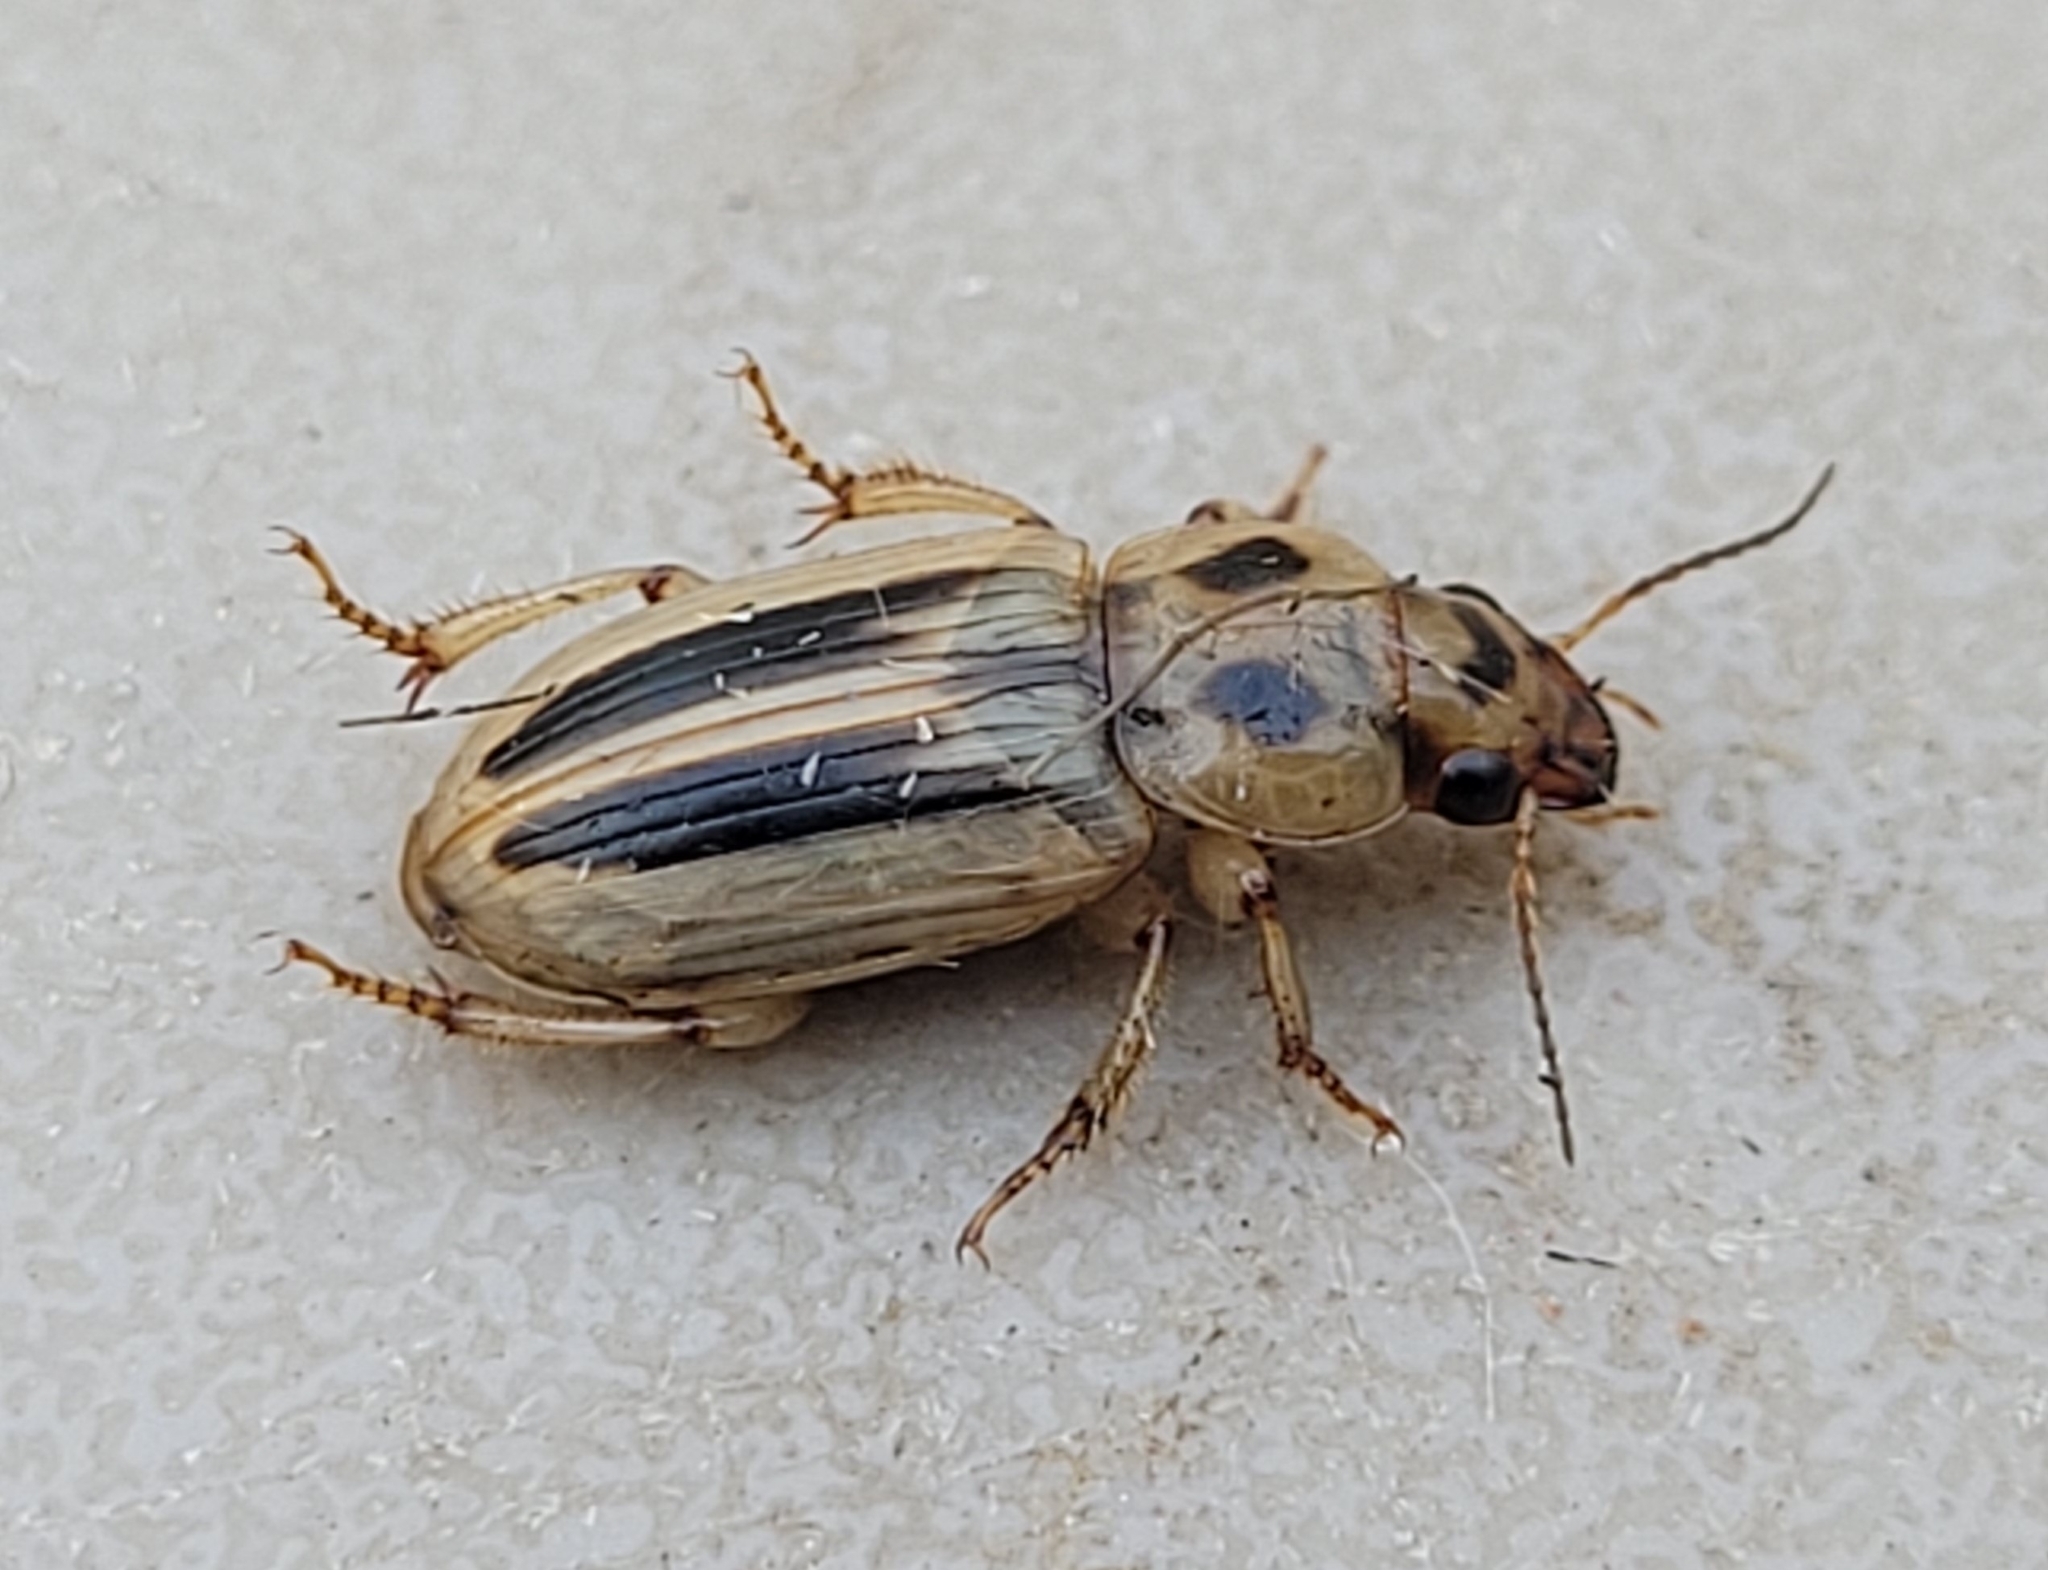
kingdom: Animalia
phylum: Arthropoda
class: Insecta
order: Coleoptera
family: Carabidae
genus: Stenolophus
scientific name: Stenolophus lineola
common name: Lined stenolophus
